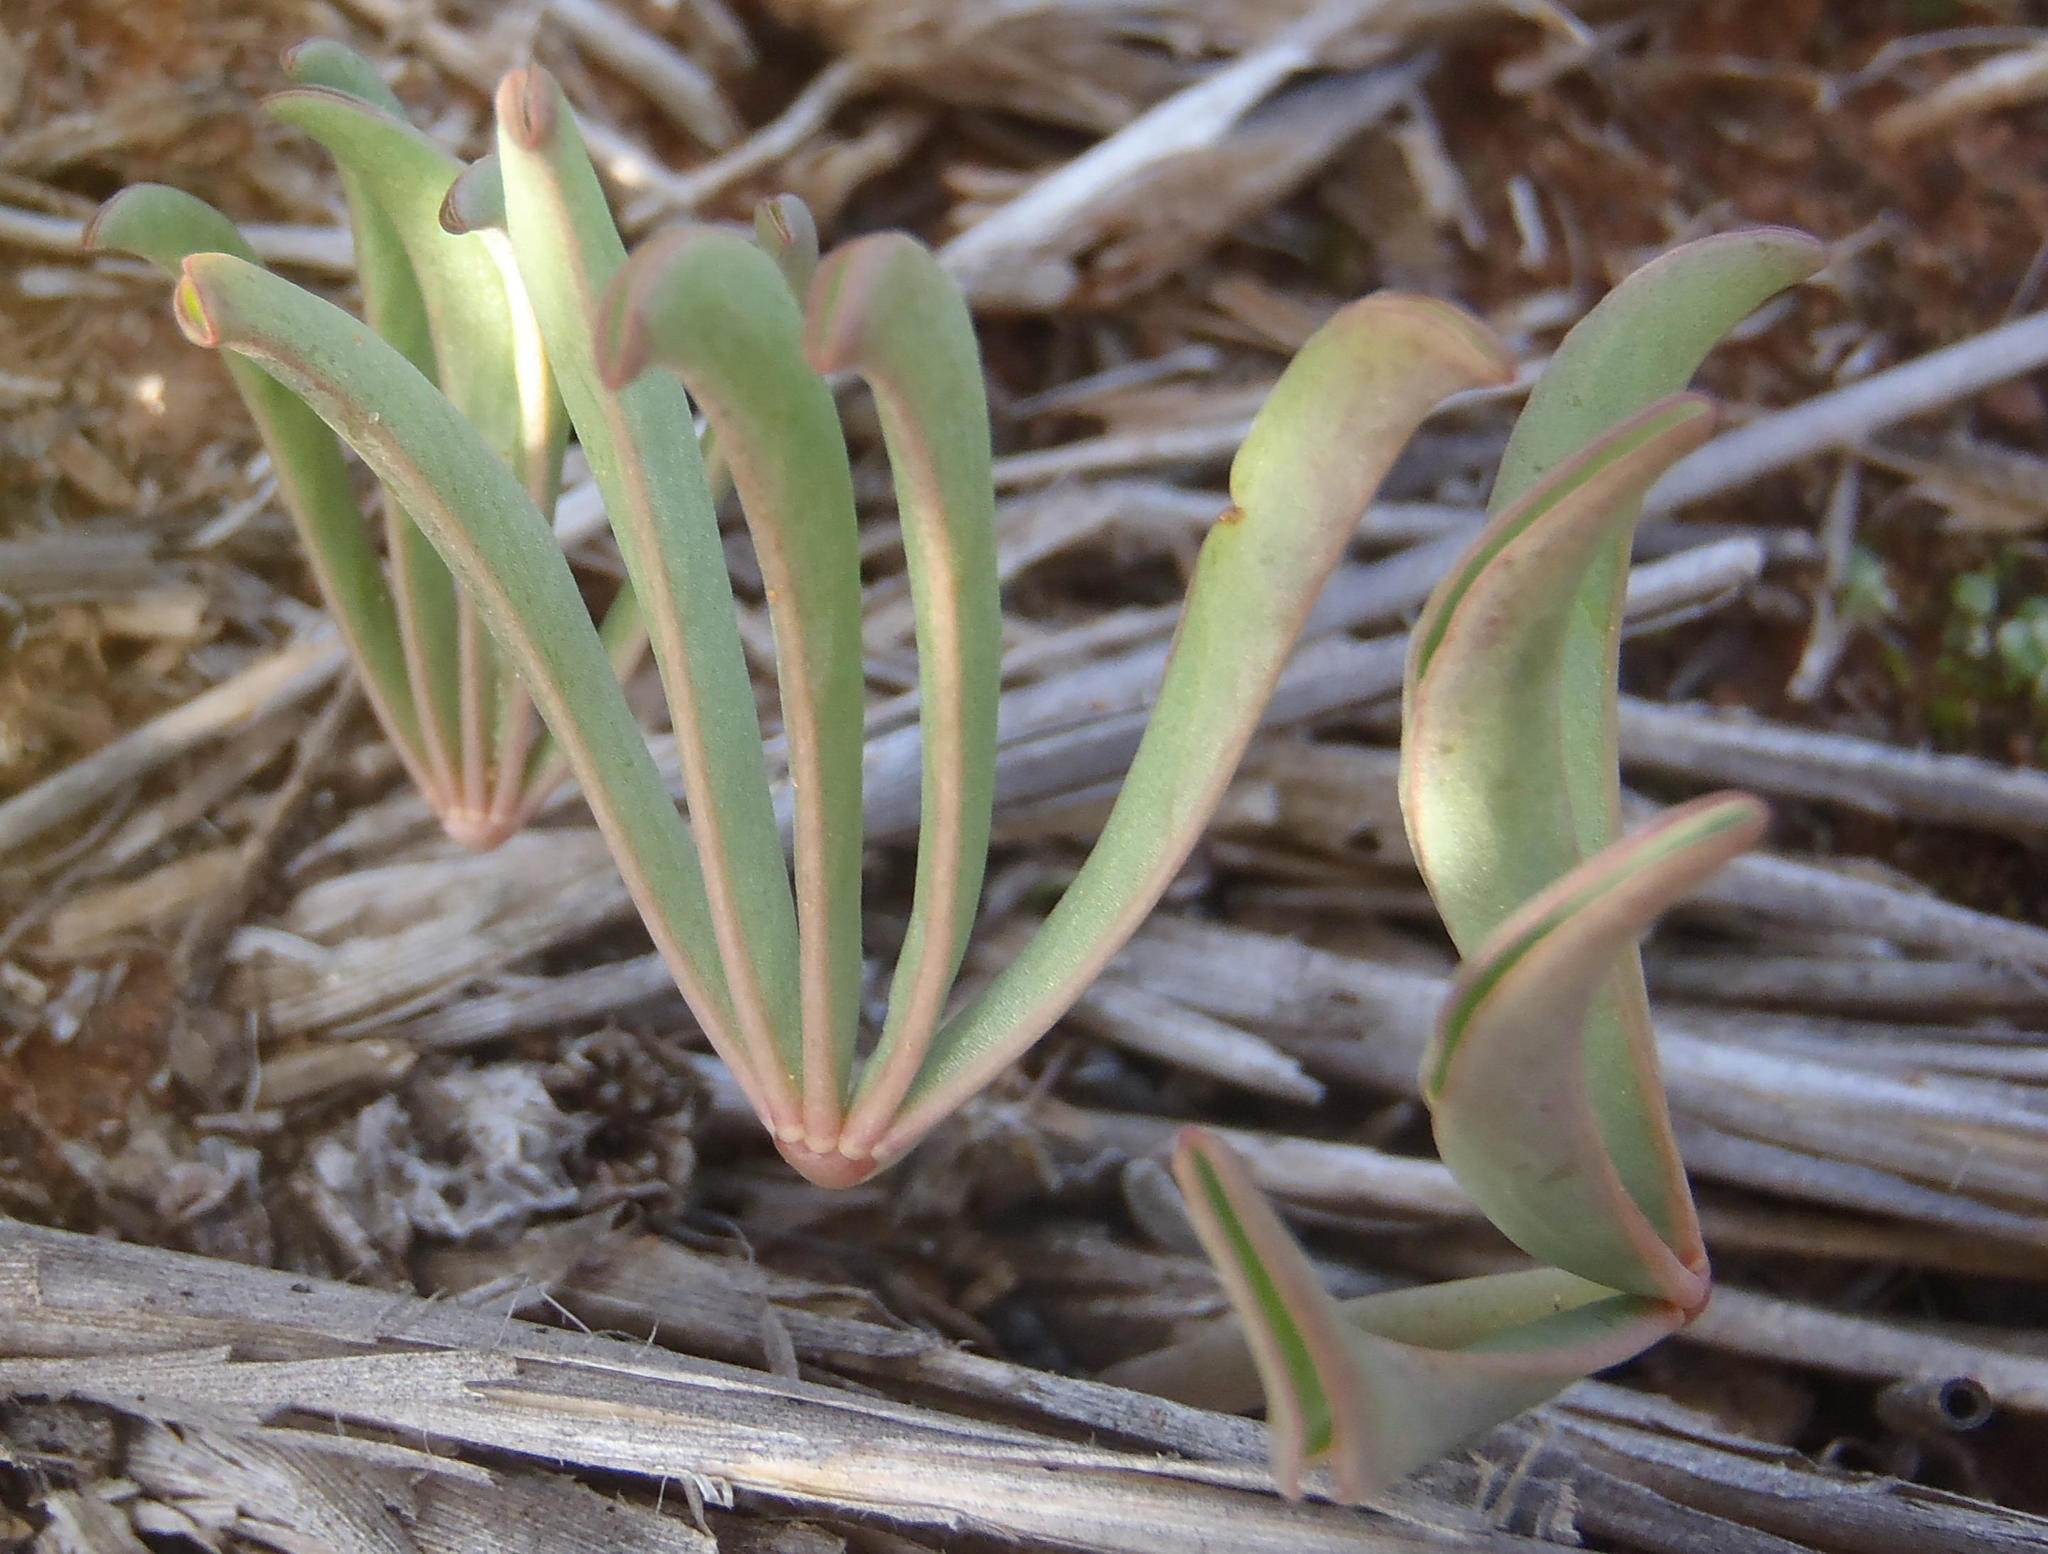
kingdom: Plantae
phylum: Tracheophyta
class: Magnoliopsida
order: Oxalidales
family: Oxalidaceae
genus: Oxalis
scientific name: Oxalis flava
